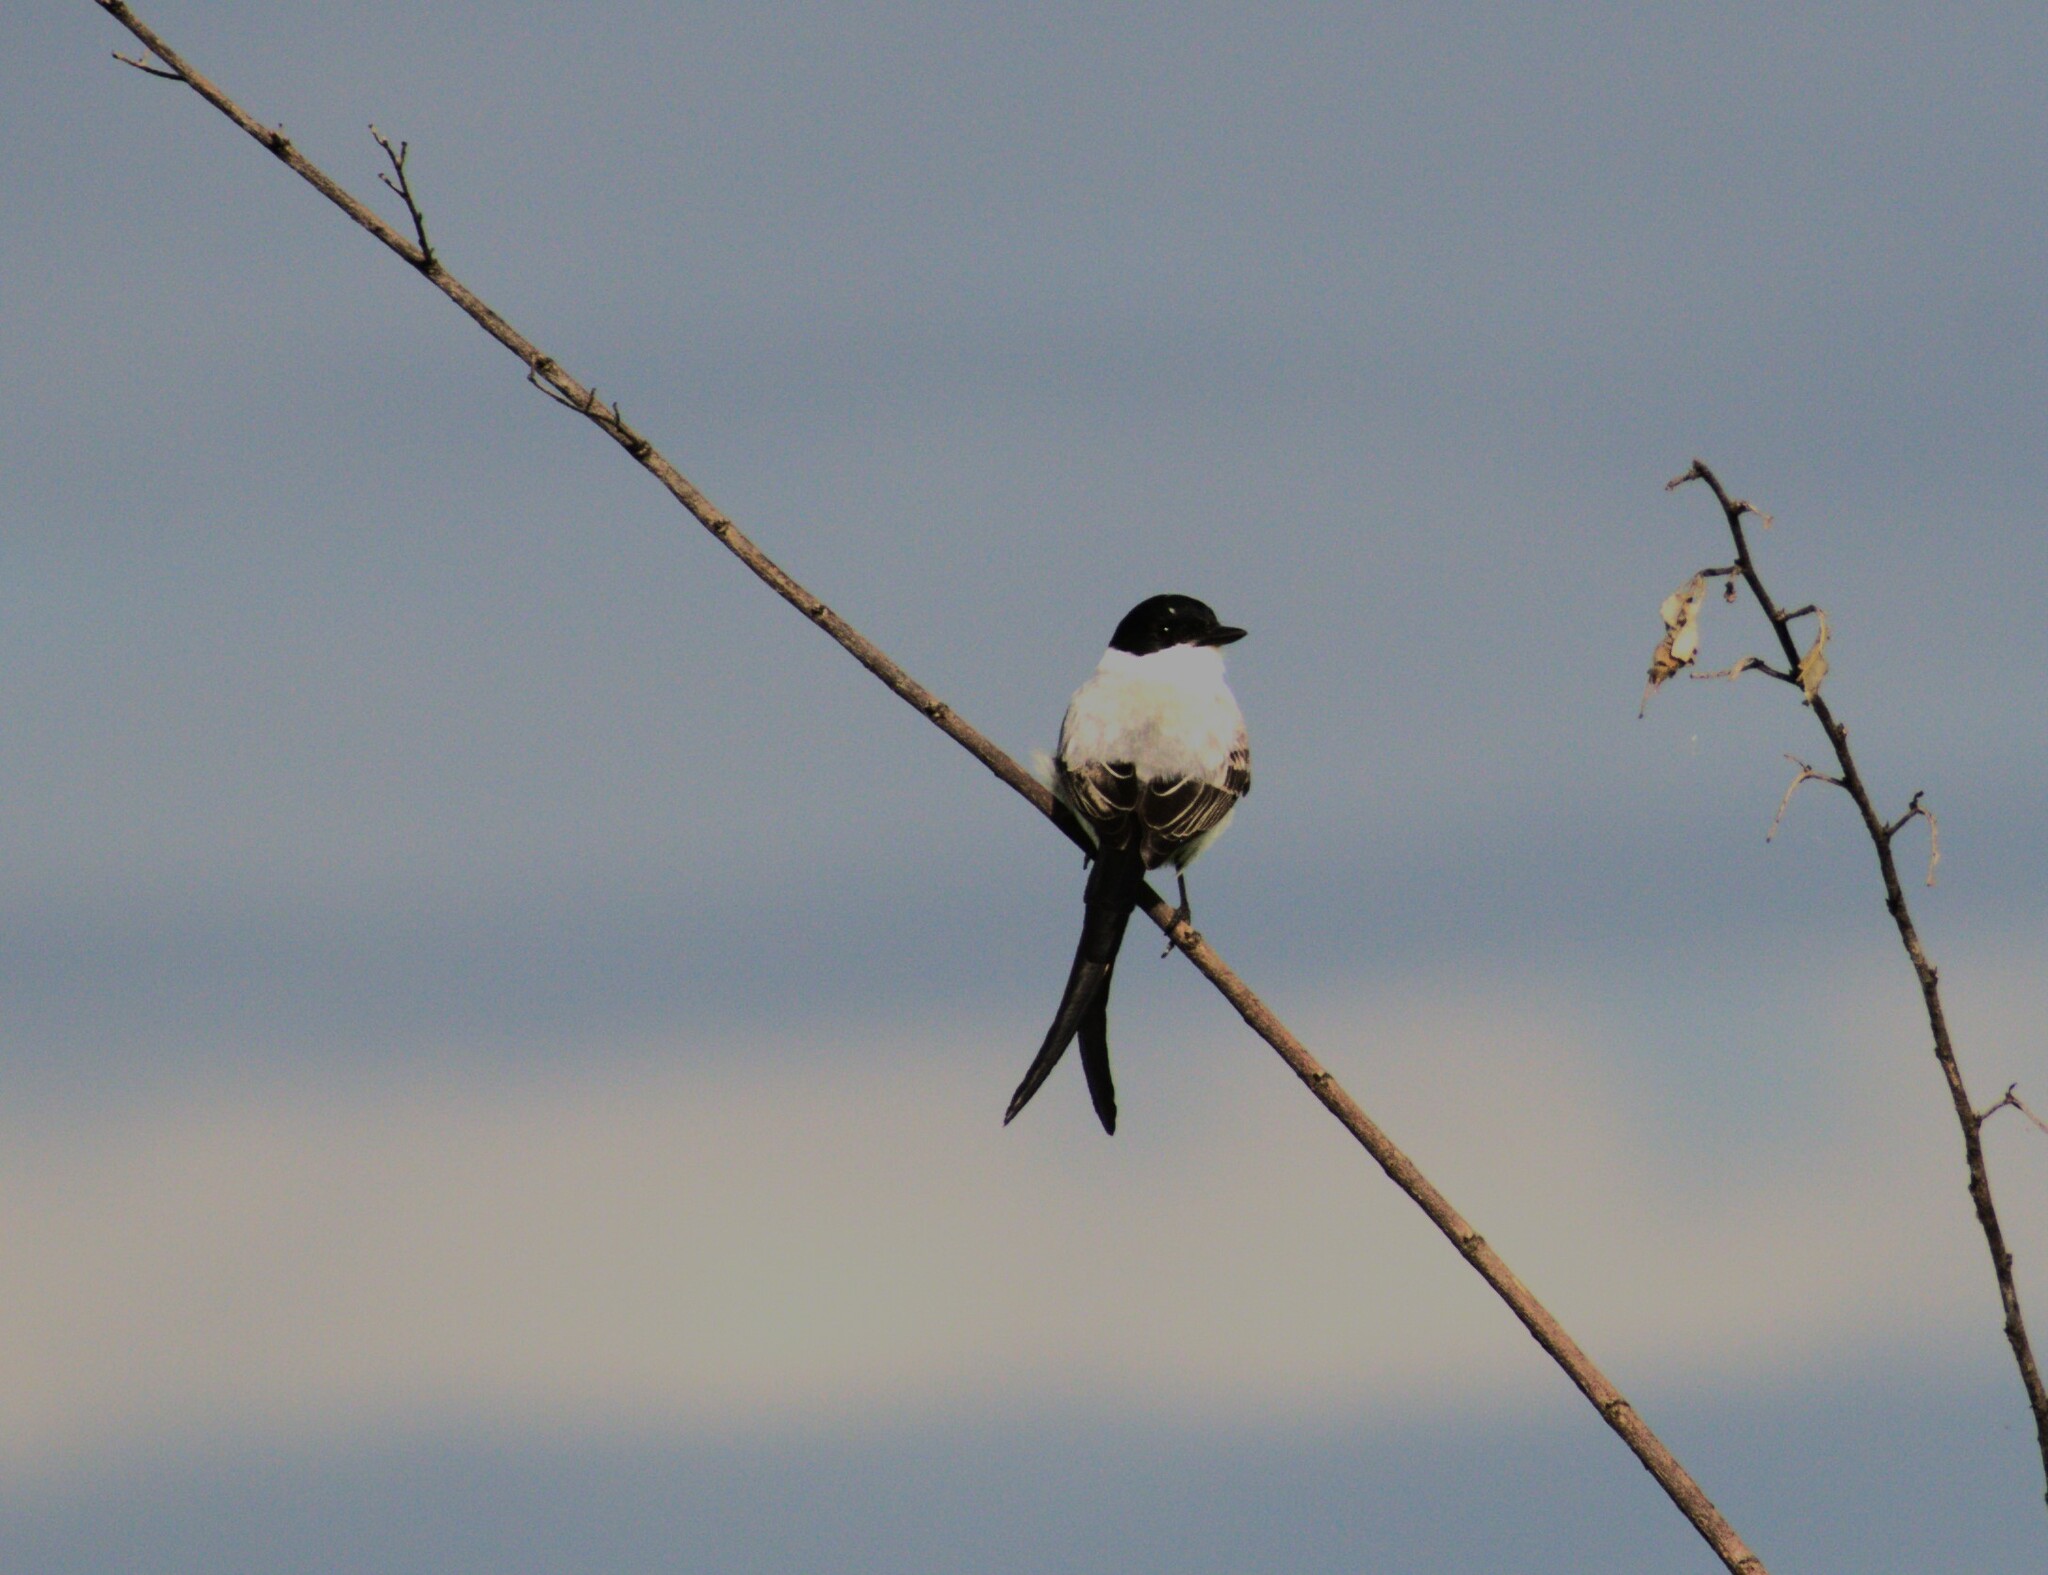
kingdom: Animalia
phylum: Chordata
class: Aves
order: Passeriformes
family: Tyrannidae
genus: Tyrannus
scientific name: Tyrannus savana
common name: Fork-tailed flycatcher
